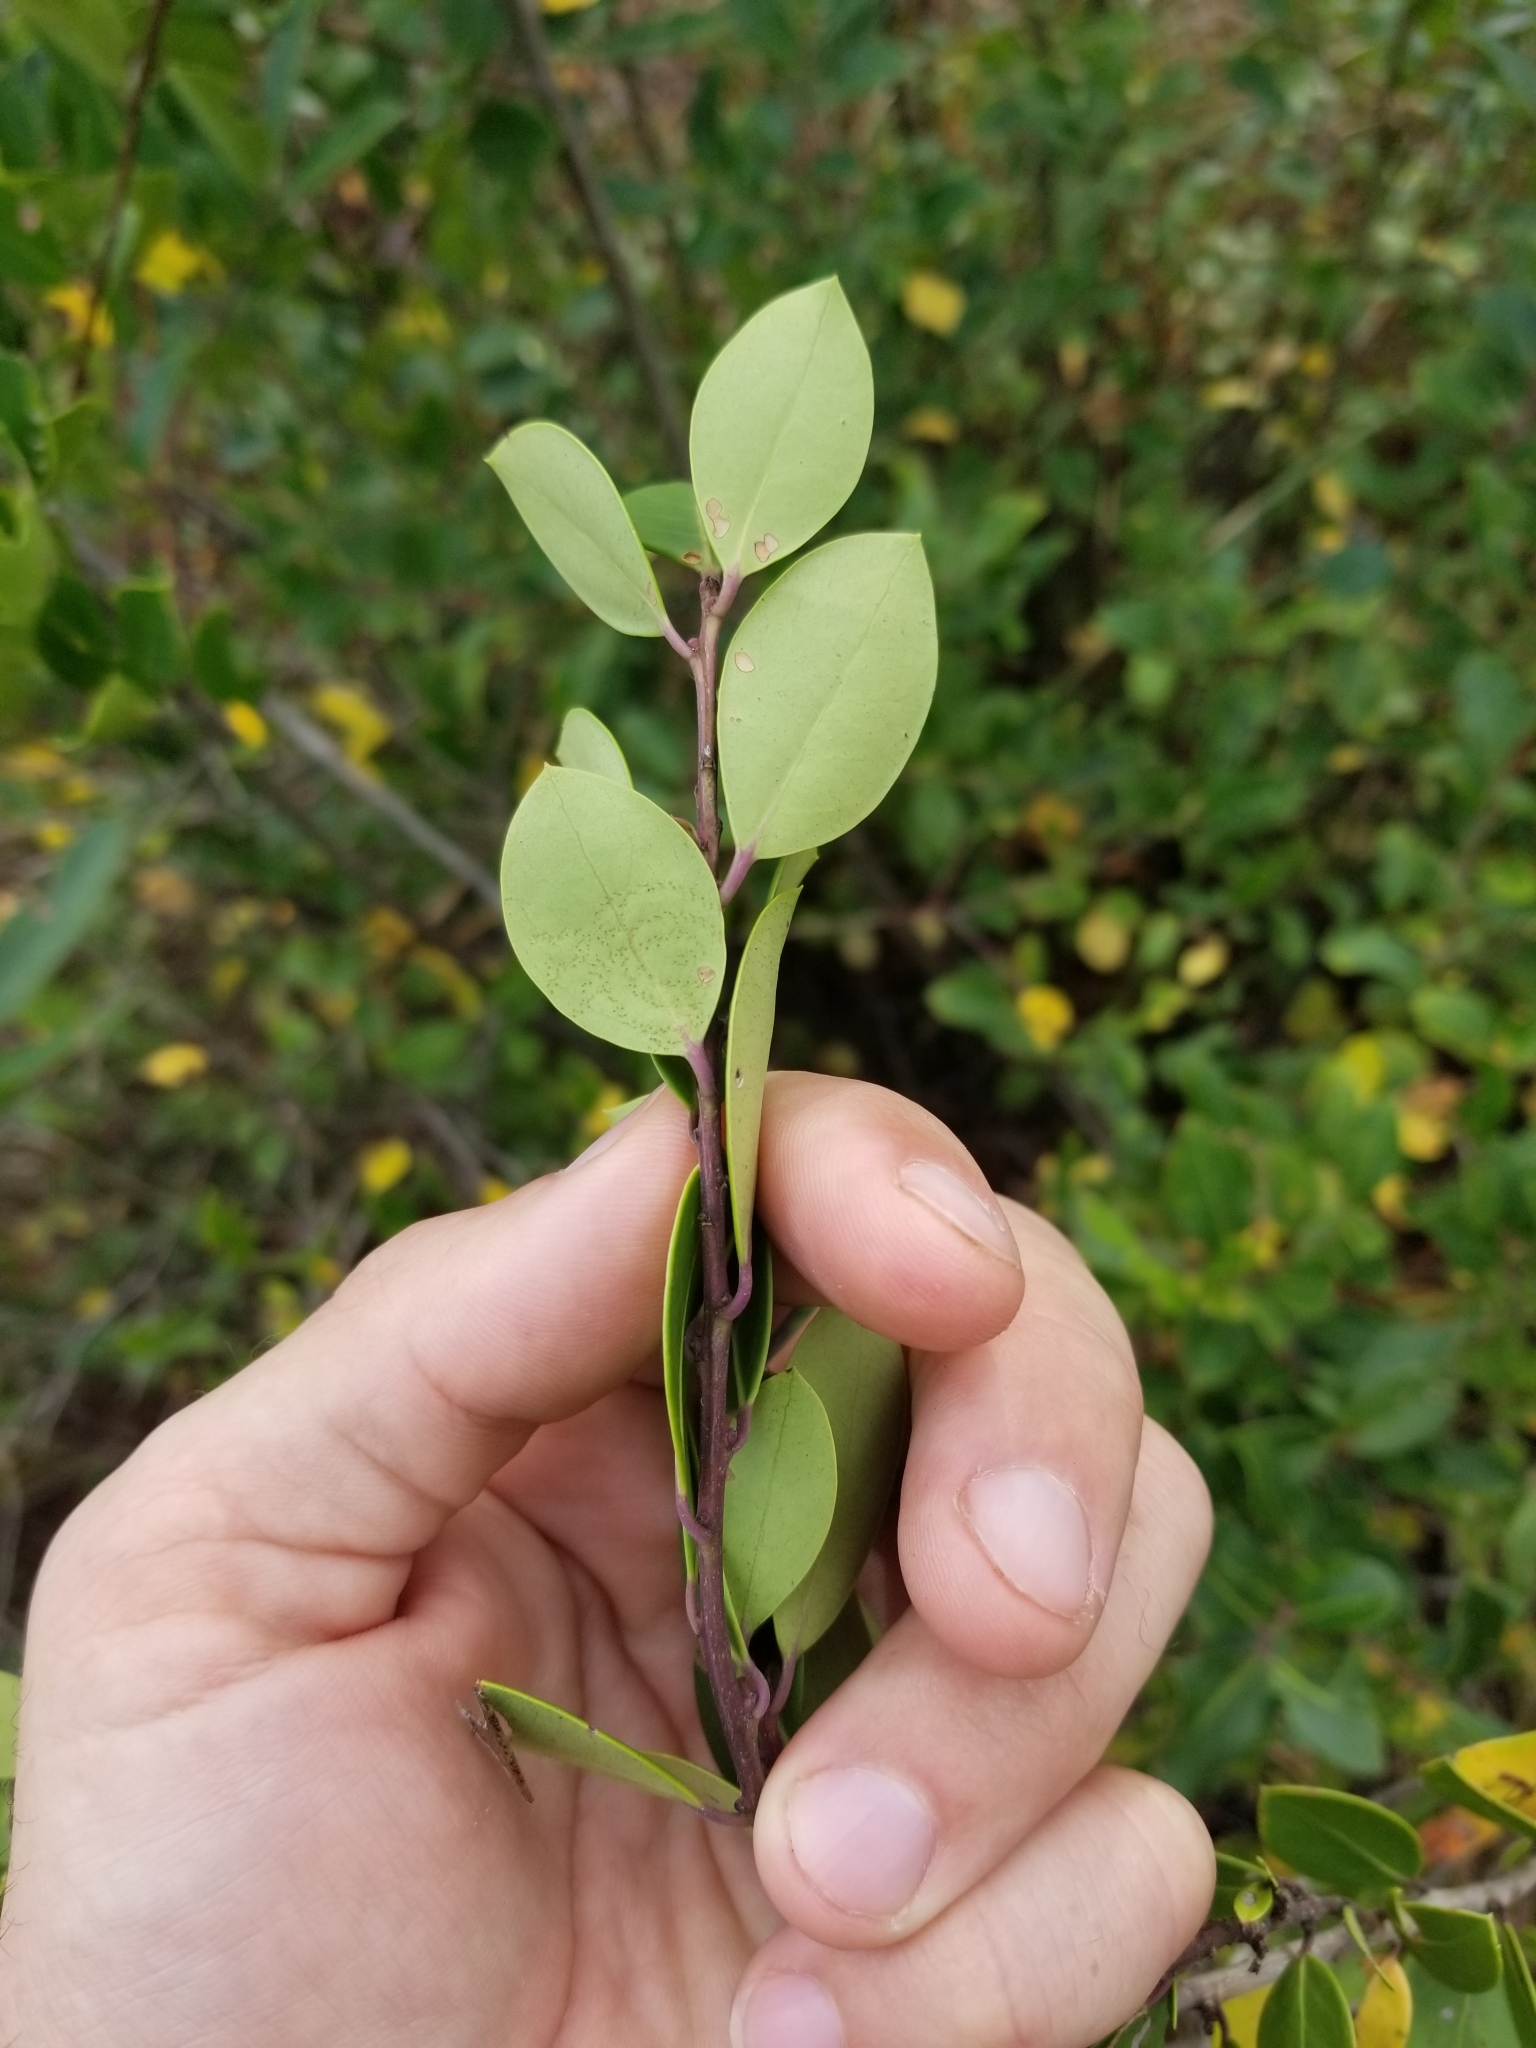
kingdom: Plantae
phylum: Tracheophyta
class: Magnoliopsida
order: Aquifoliales
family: Aquifoliaceae
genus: Ilex
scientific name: Ilex coriacea
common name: Sweet gallberry
